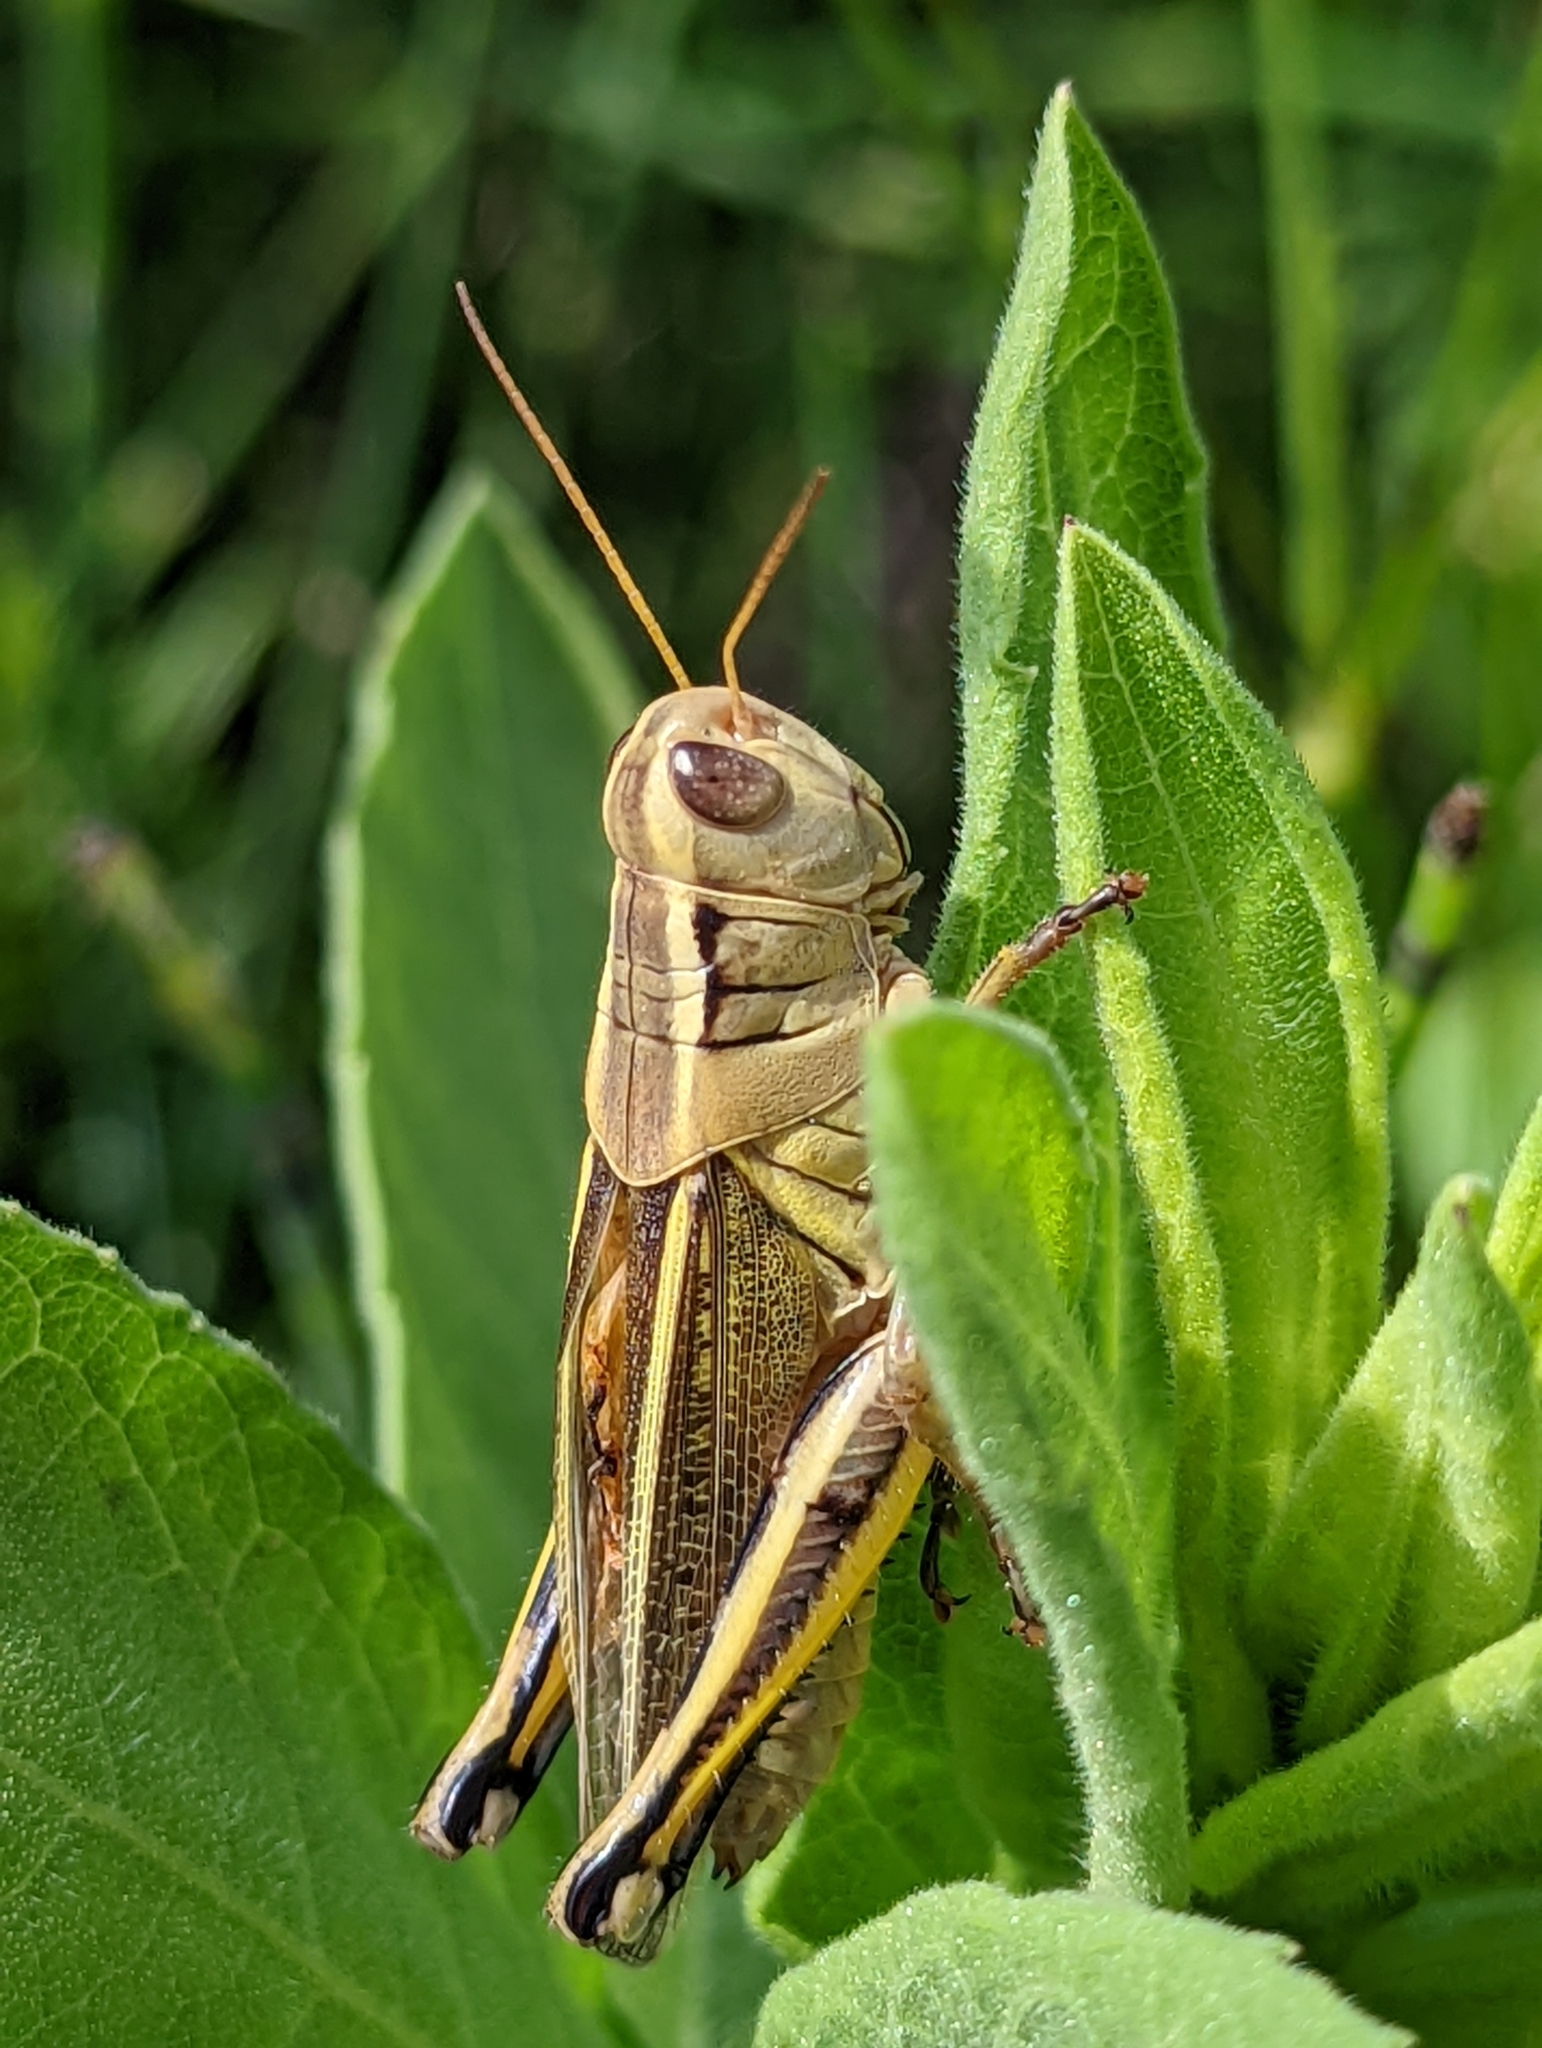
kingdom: Animalia
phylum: Arthropoda
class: Insecta
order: Orthoptera
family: Acrididae
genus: Melanoplus
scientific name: Melanoplus bivittatus
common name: Two-striped grasshopper
